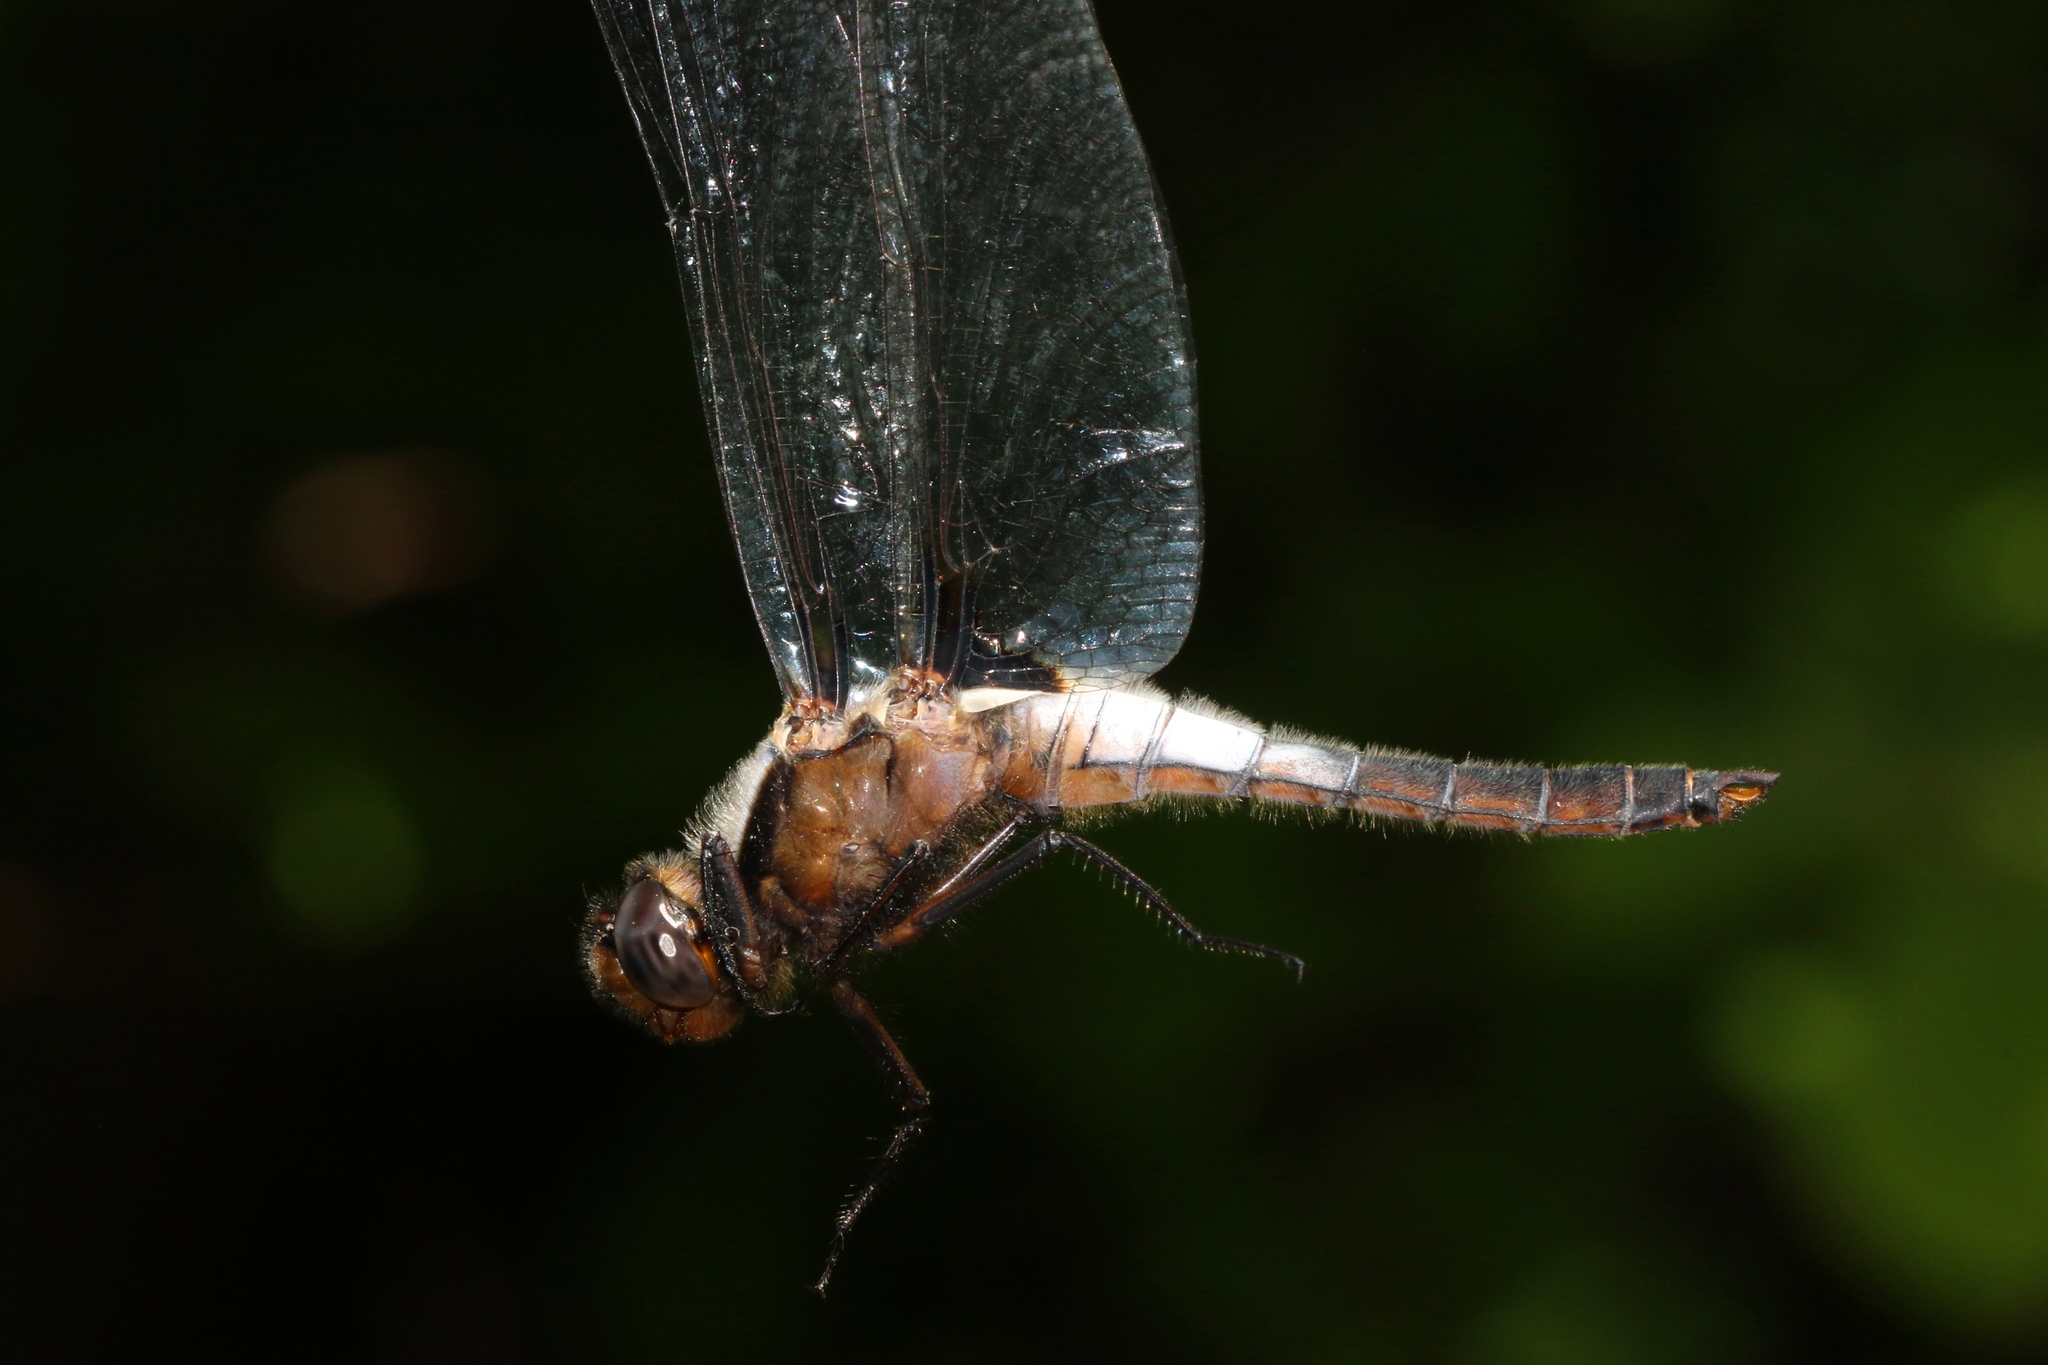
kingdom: Animalia
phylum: Arthropoda
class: Insecta
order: Odonata
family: Libellulidae
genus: Ladona
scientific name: Ladona julia
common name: Chalk-fronted corporal
